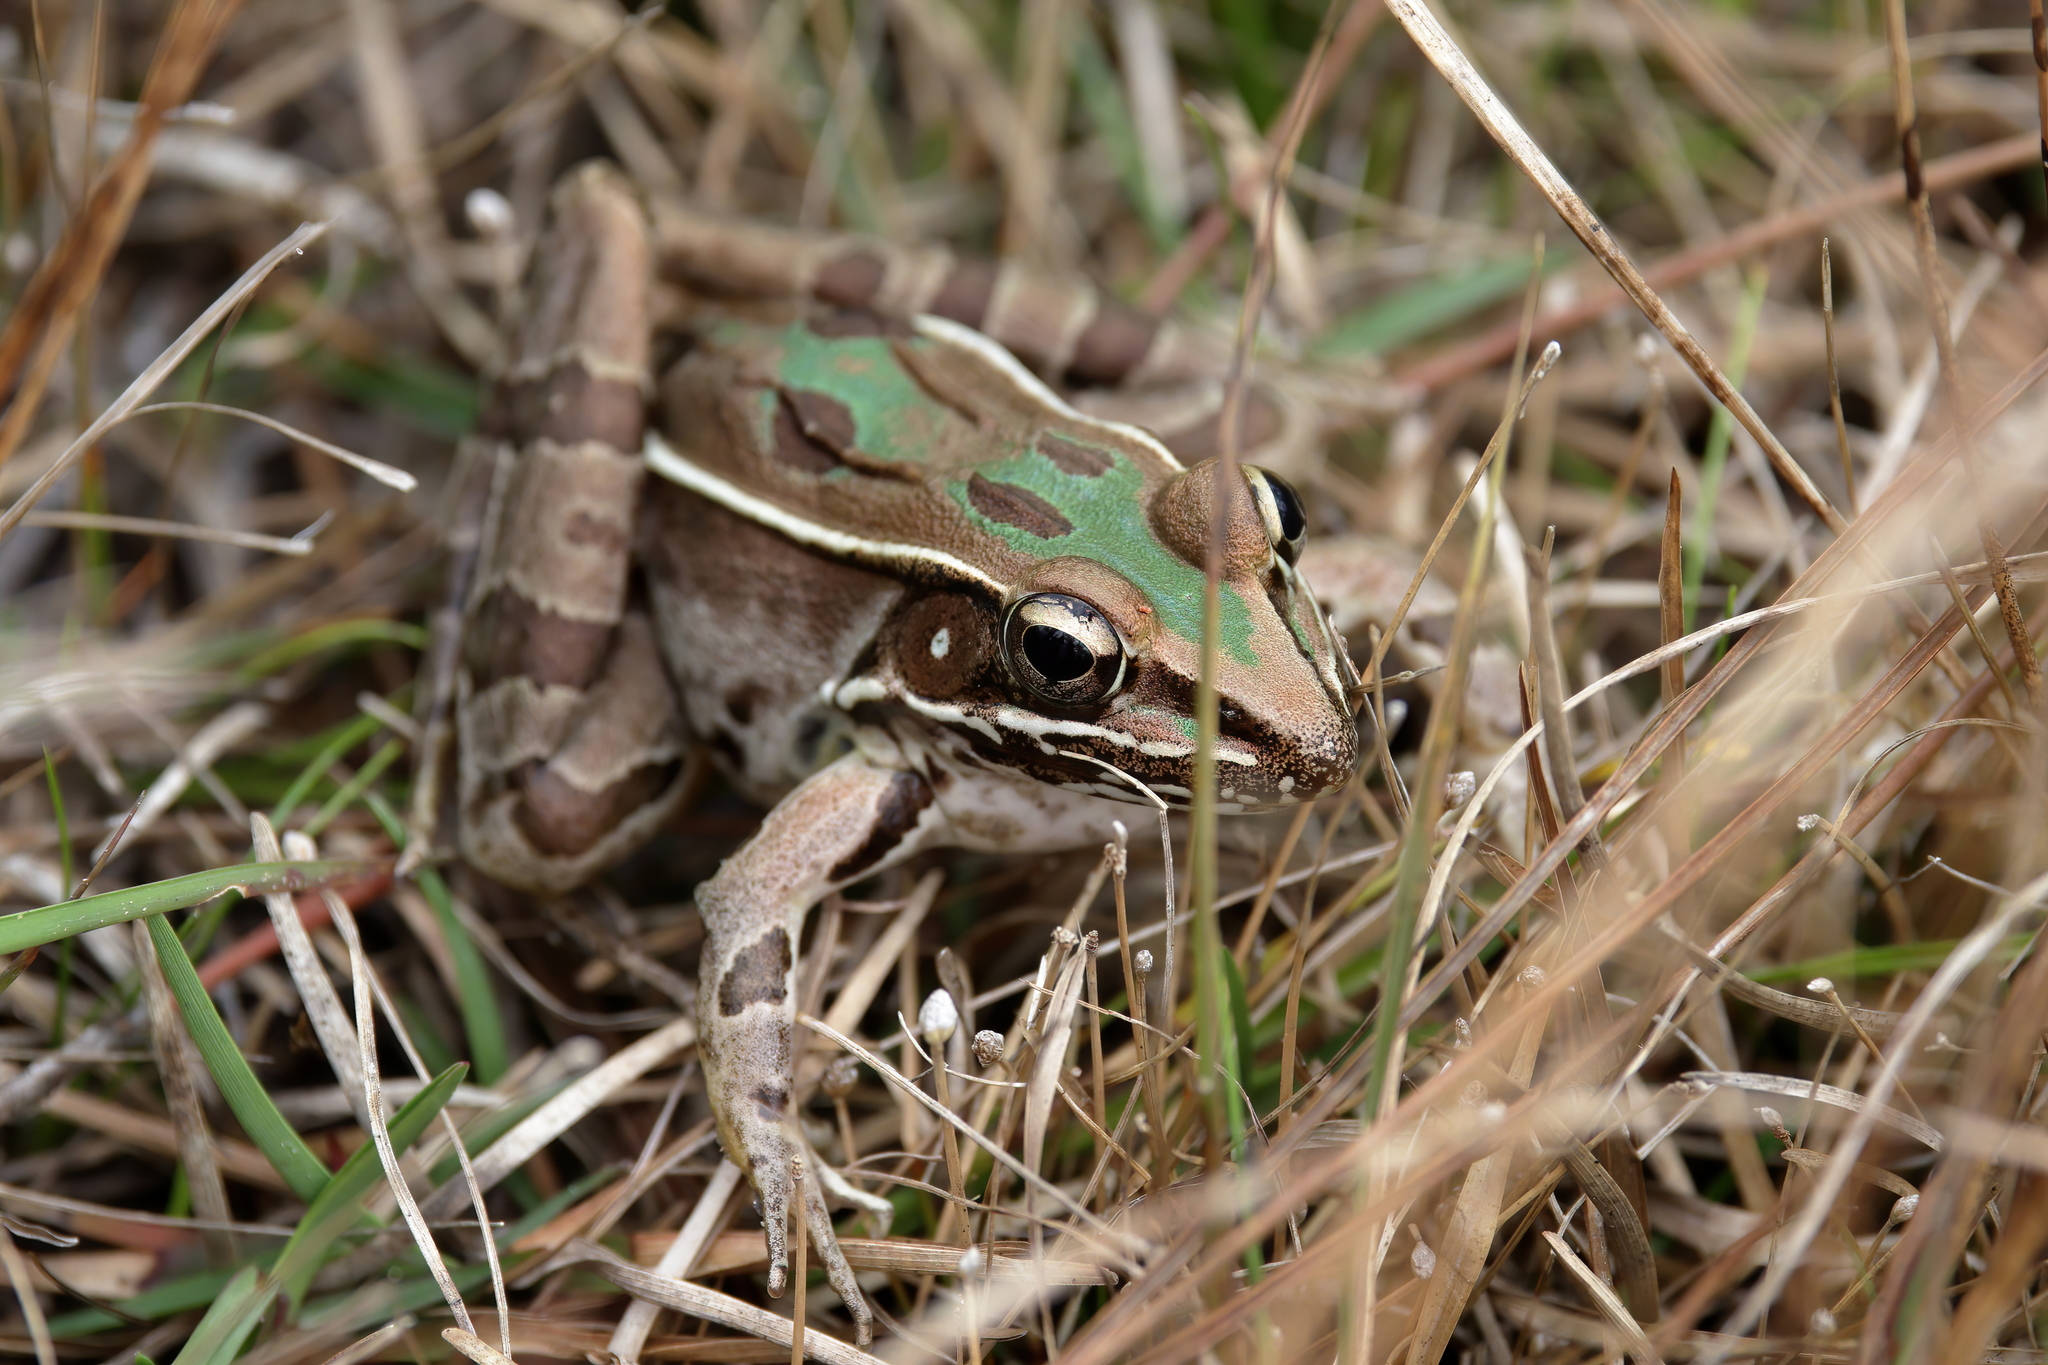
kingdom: Animalia
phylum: Chordata
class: Amphibia
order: Anura
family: Ranidae
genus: Lithobates
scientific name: Lithobates sphenocephalus
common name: Southern leopard frog
